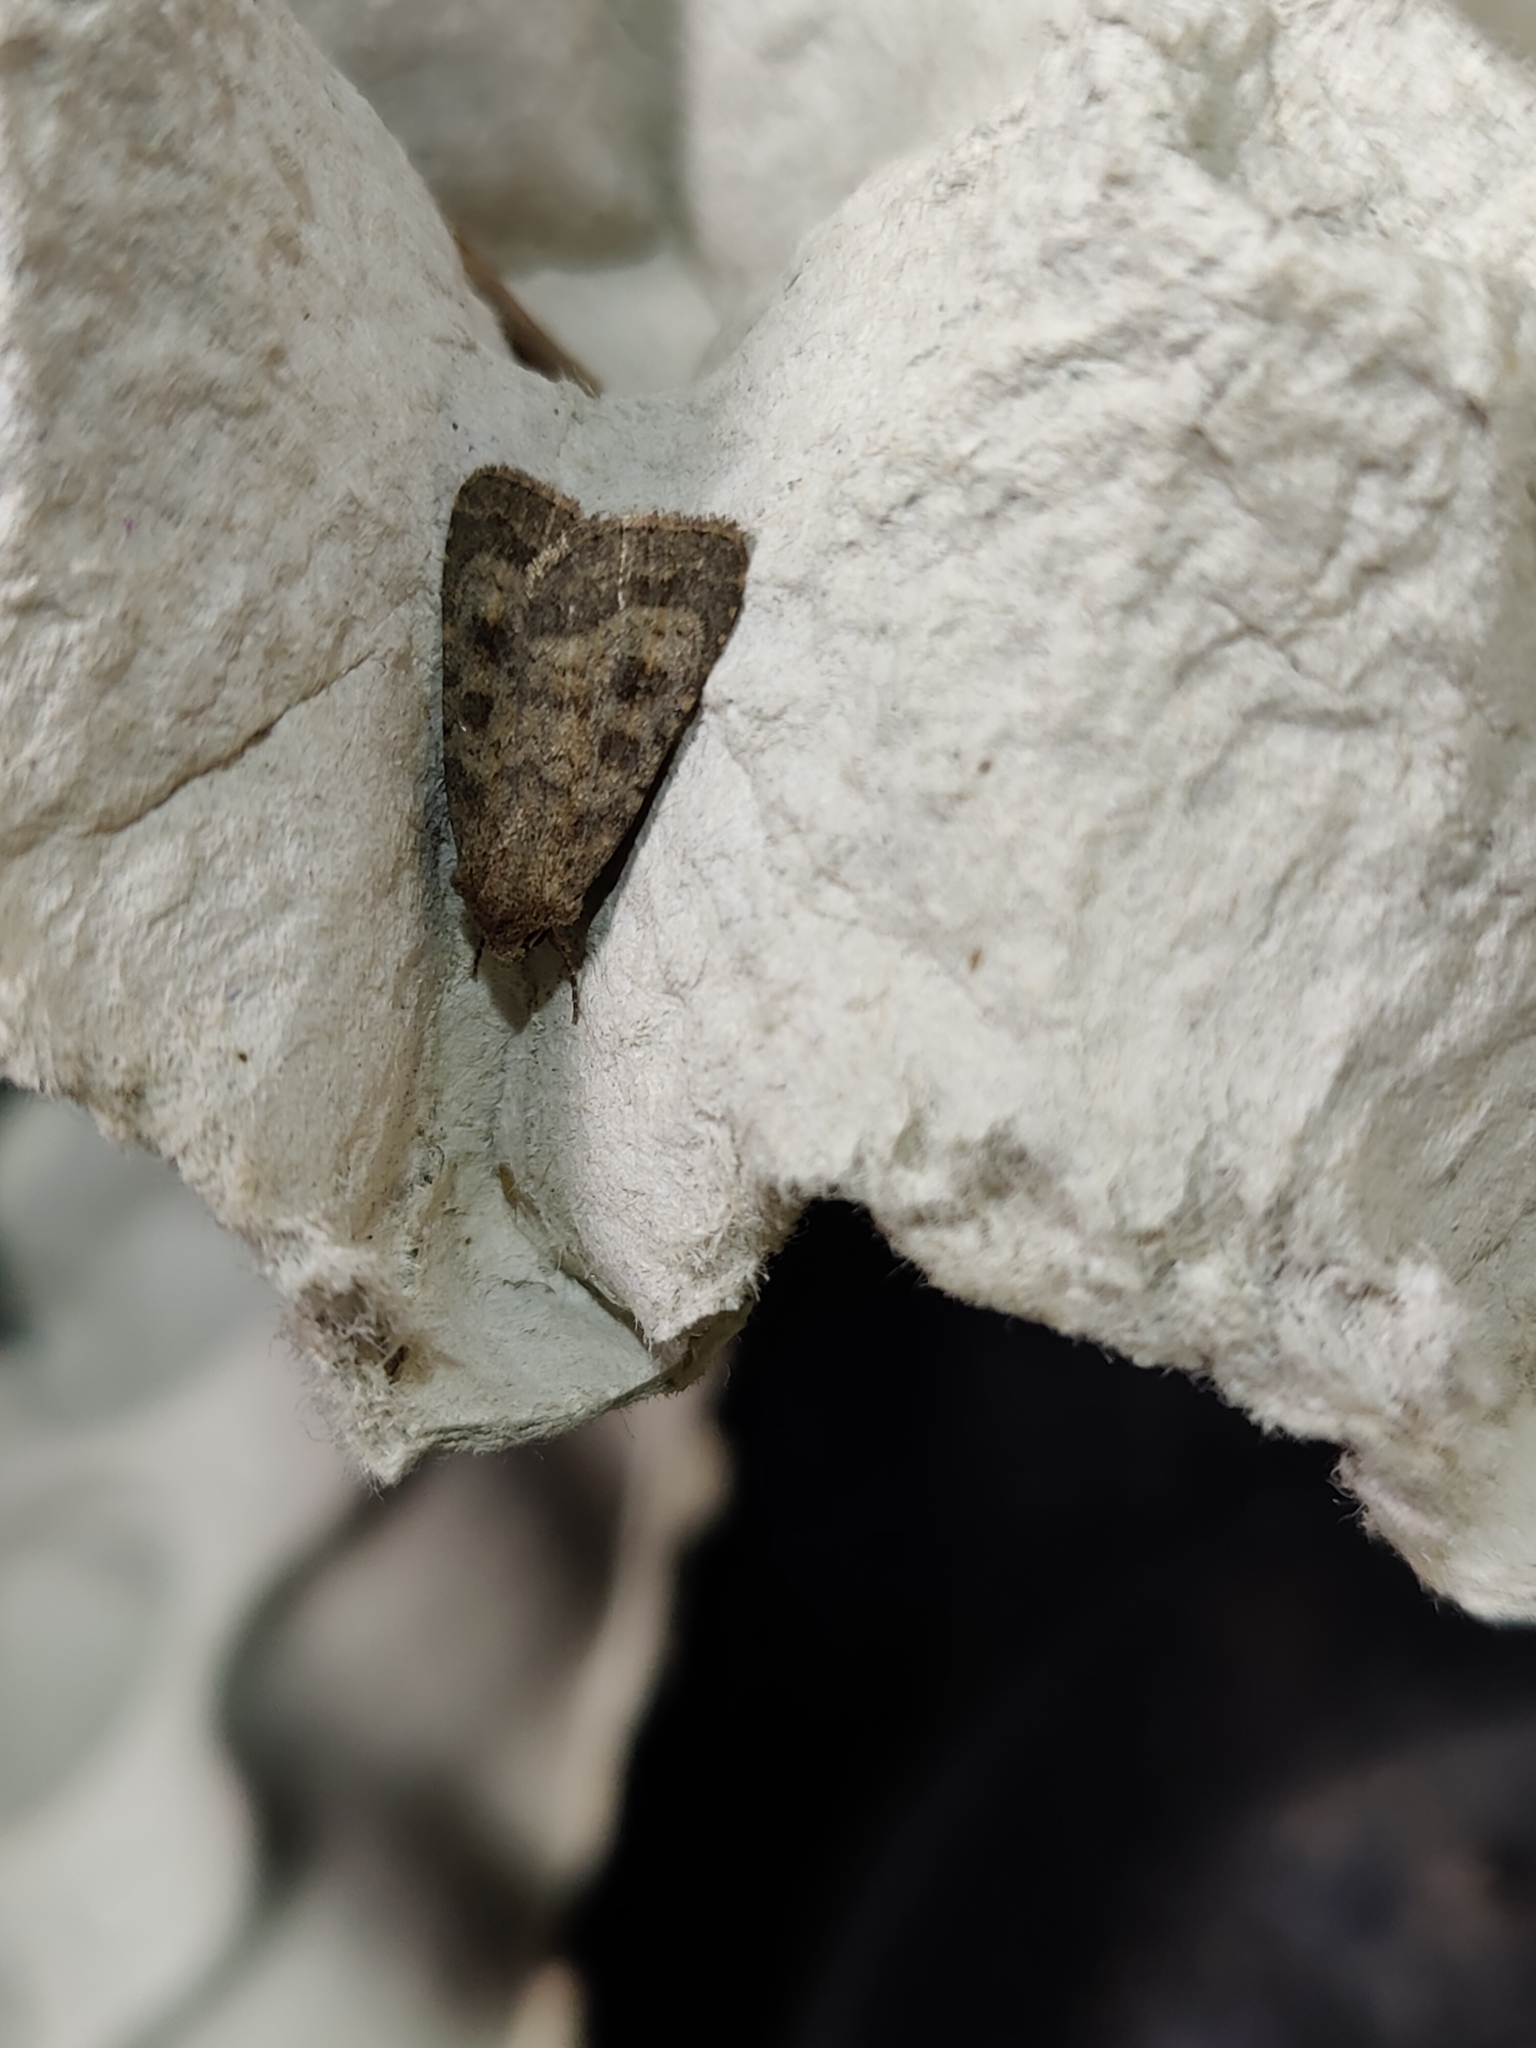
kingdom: Animalia
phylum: Arthropoda
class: Insecta
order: Lepidoptera
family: Noctuidae
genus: Caradrina
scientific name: Caradrina morpheus
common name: Mottled rustic
